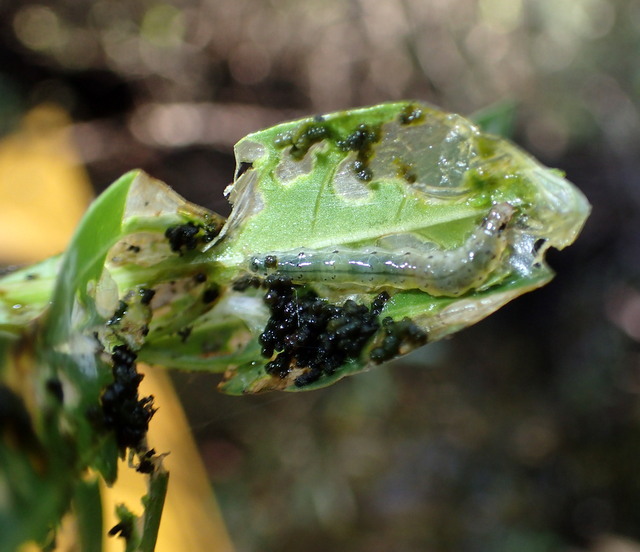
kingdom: Animalia
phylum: Arthropoda
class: Insecta
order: Lepidoptera
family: Crambidae
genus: Herpetogramma
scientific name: Herpetogramma bipunctalis
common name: Southern beet webworm
